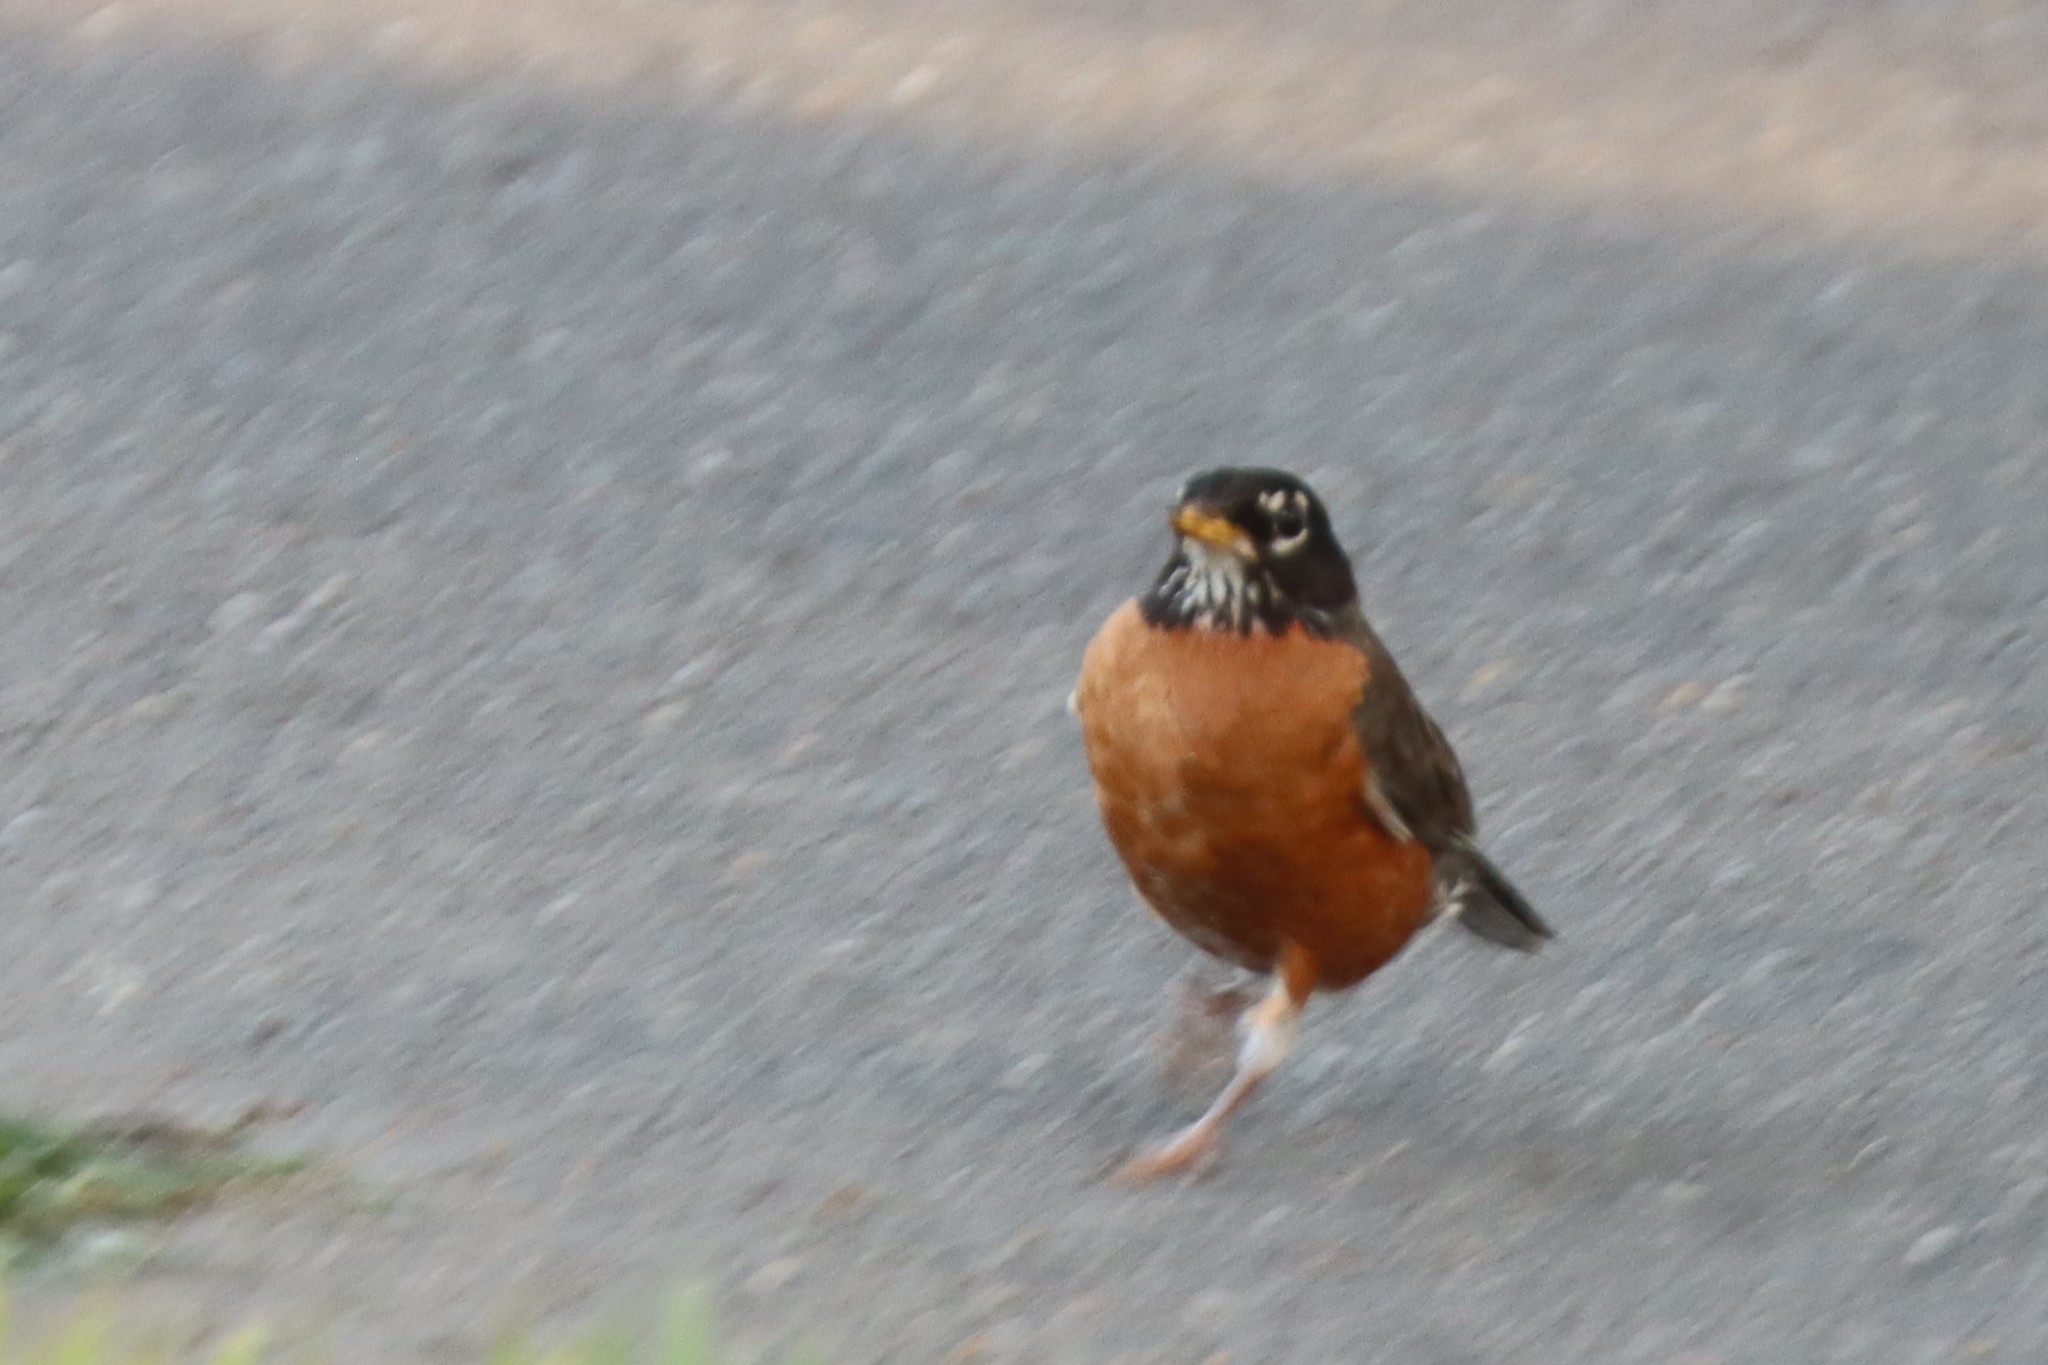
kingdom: Animalia
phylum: Chordata
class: Aves
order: Passeriformes
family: Turdidae
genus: Turdus
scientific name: Turdus migratorius
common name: American robin
